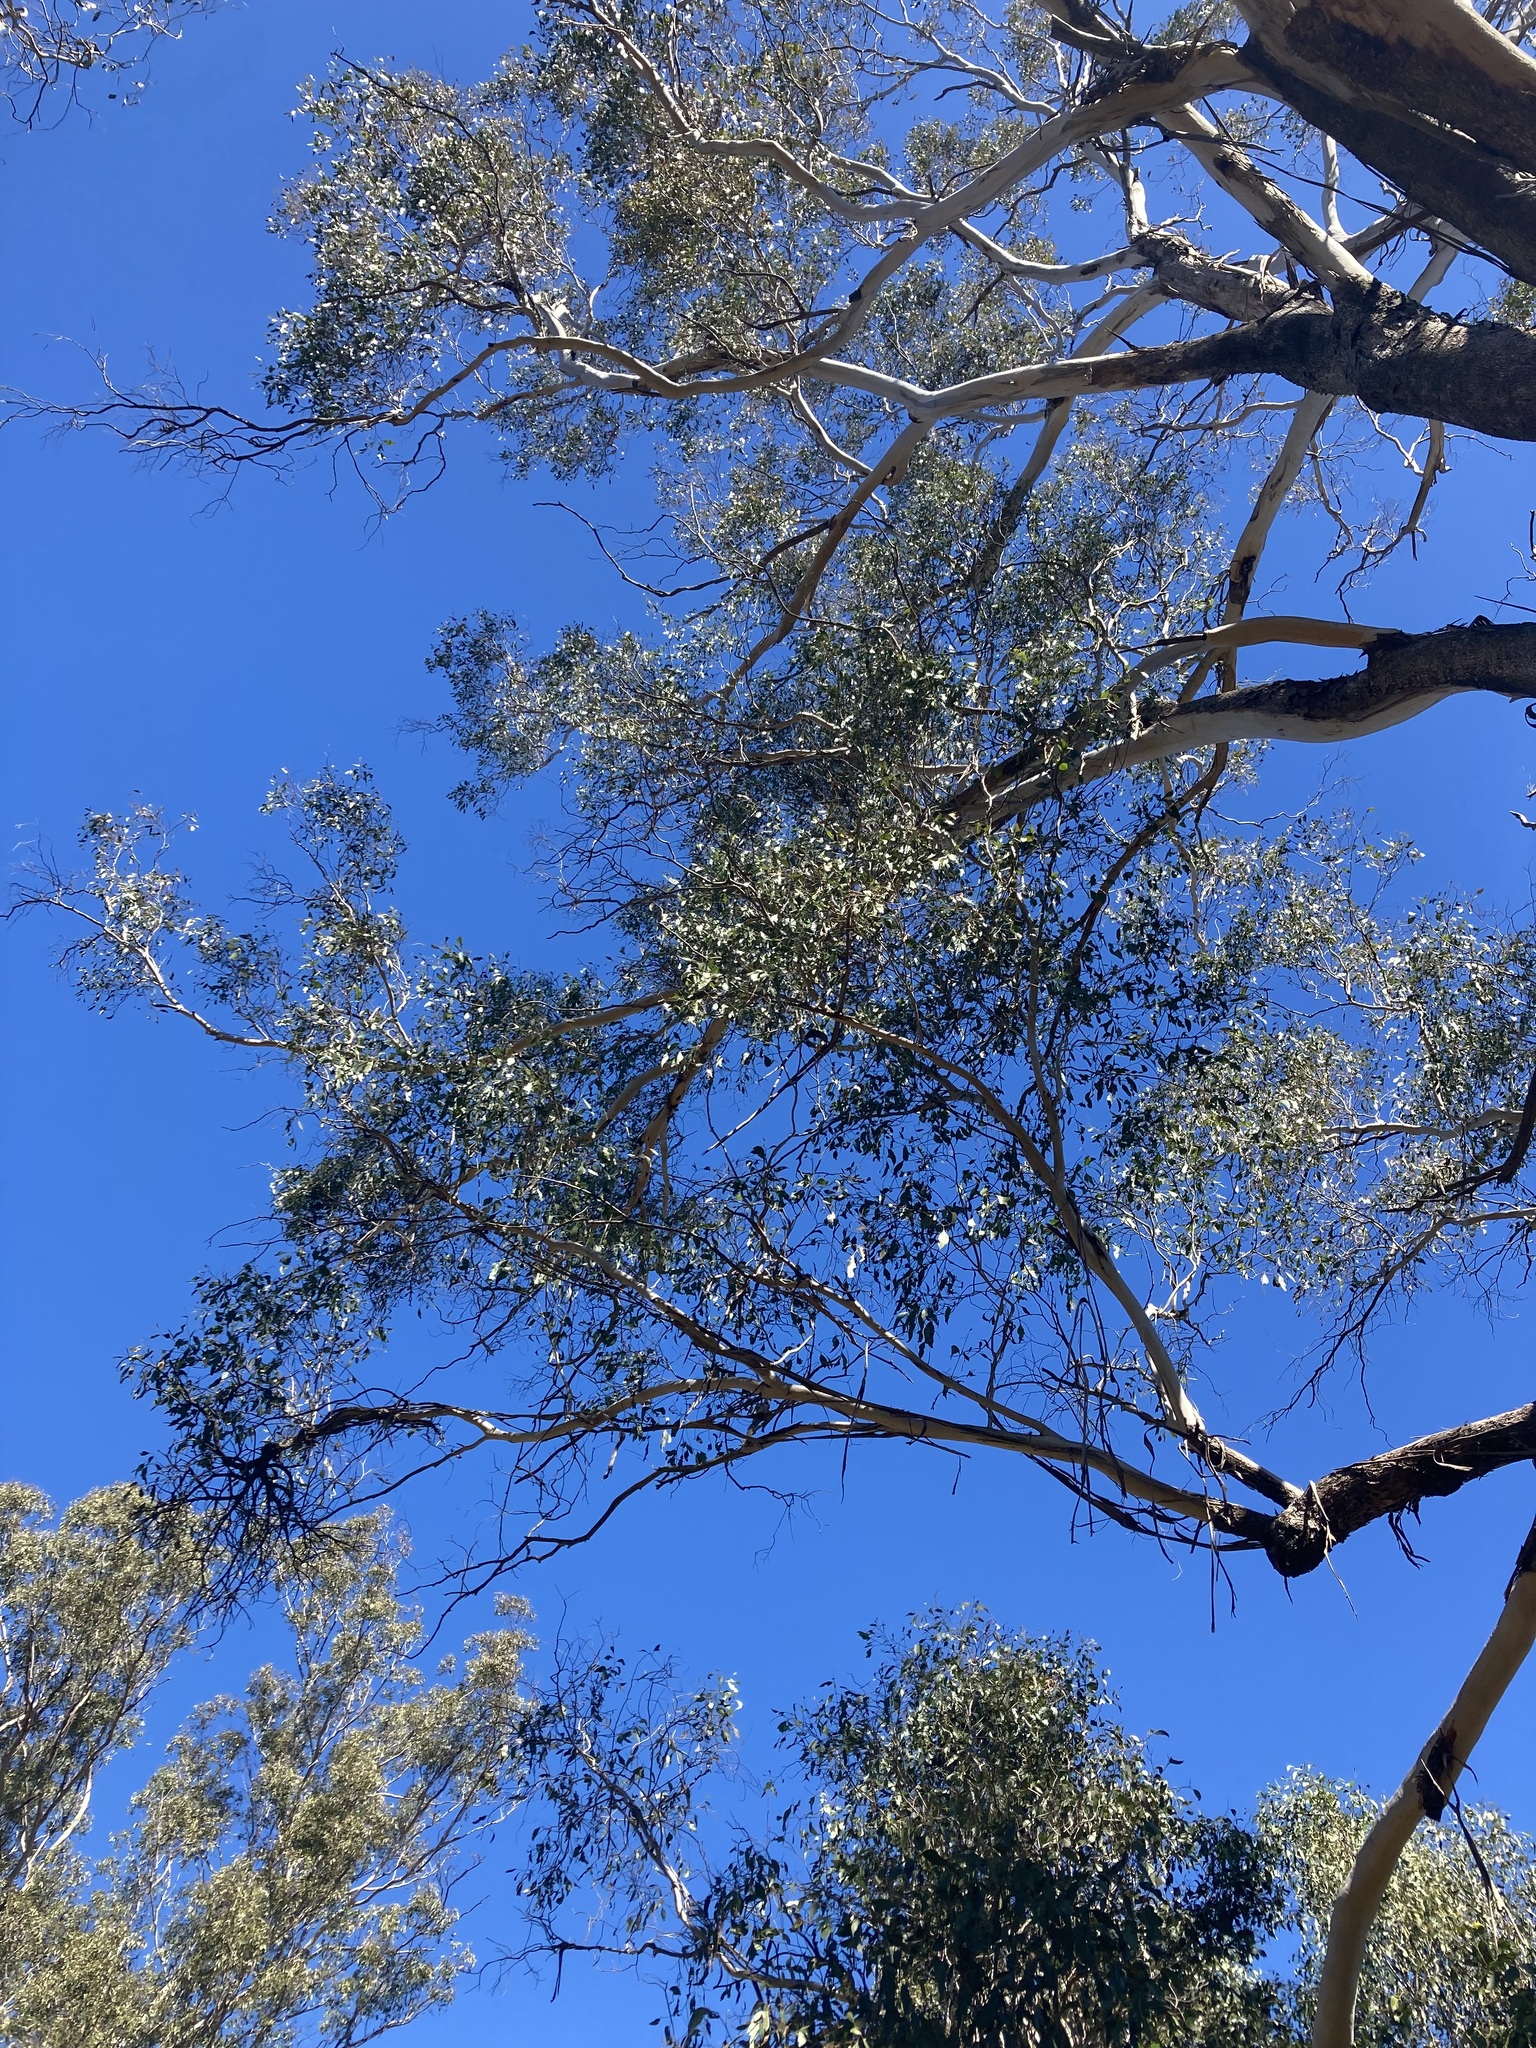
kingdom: Plantae
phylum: Tracheophyta
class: Magnoliopsida
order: Myrtales
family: Myrtaceae
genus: Eucalyptus
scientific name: Eucalyptus moluccana
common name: Grey-box
